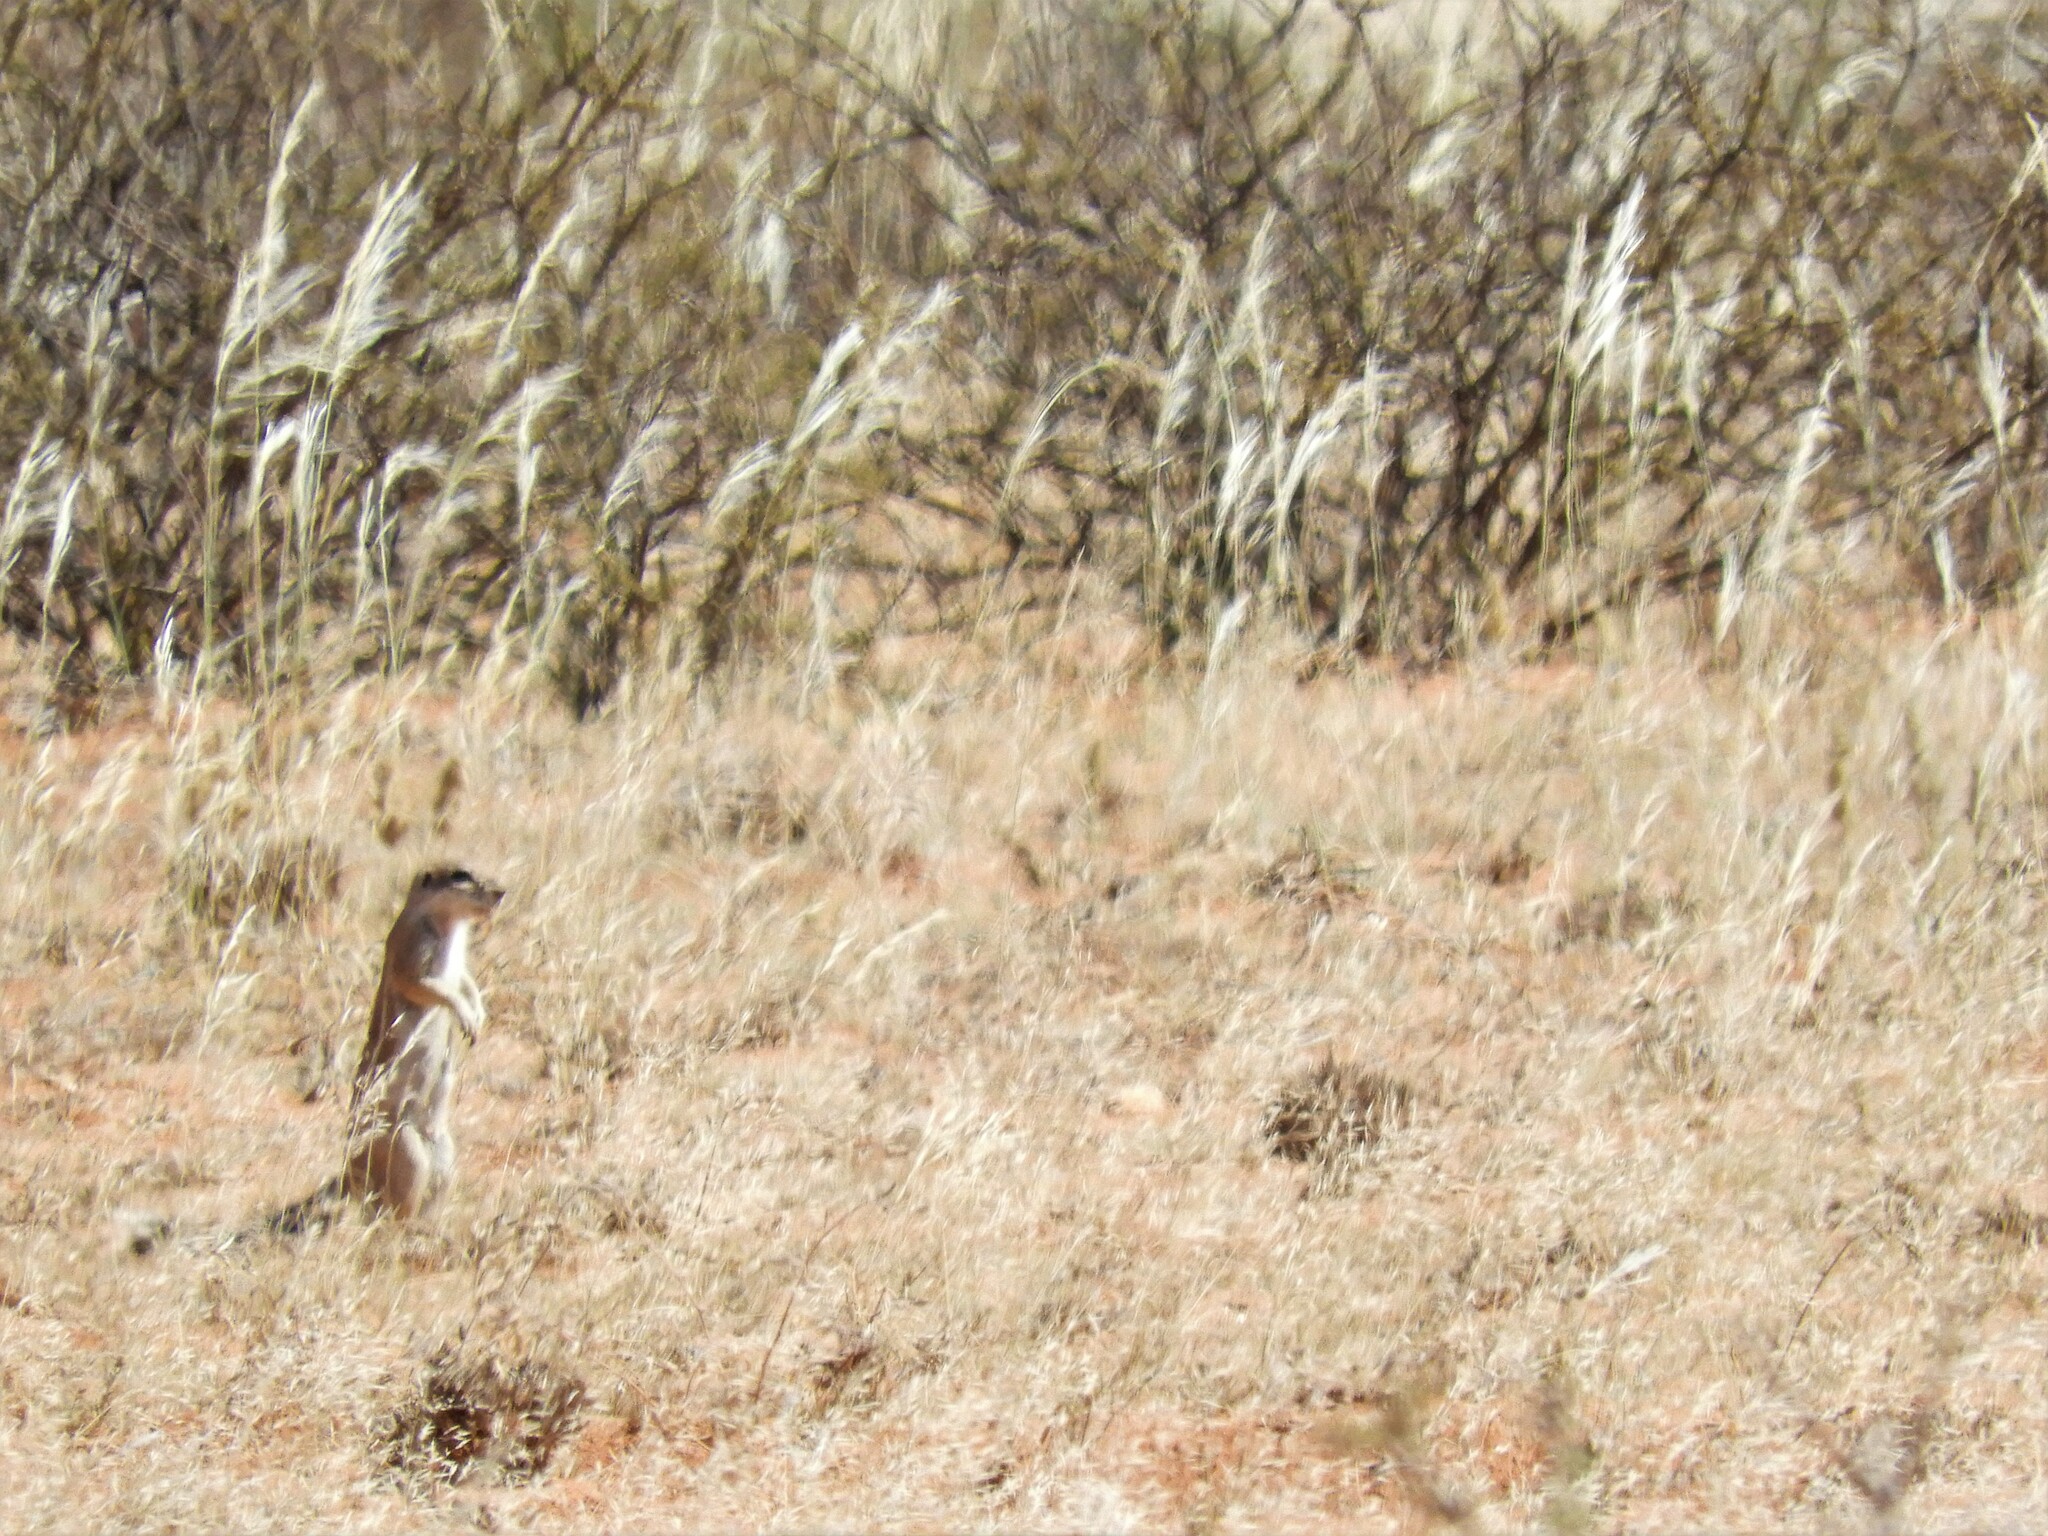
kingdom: Animalia
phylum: Chordata
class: Mammalia
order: Rodentia
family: Sciuridae
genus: Xerus
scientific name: Xerus inauris
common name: South african ground squirrel
